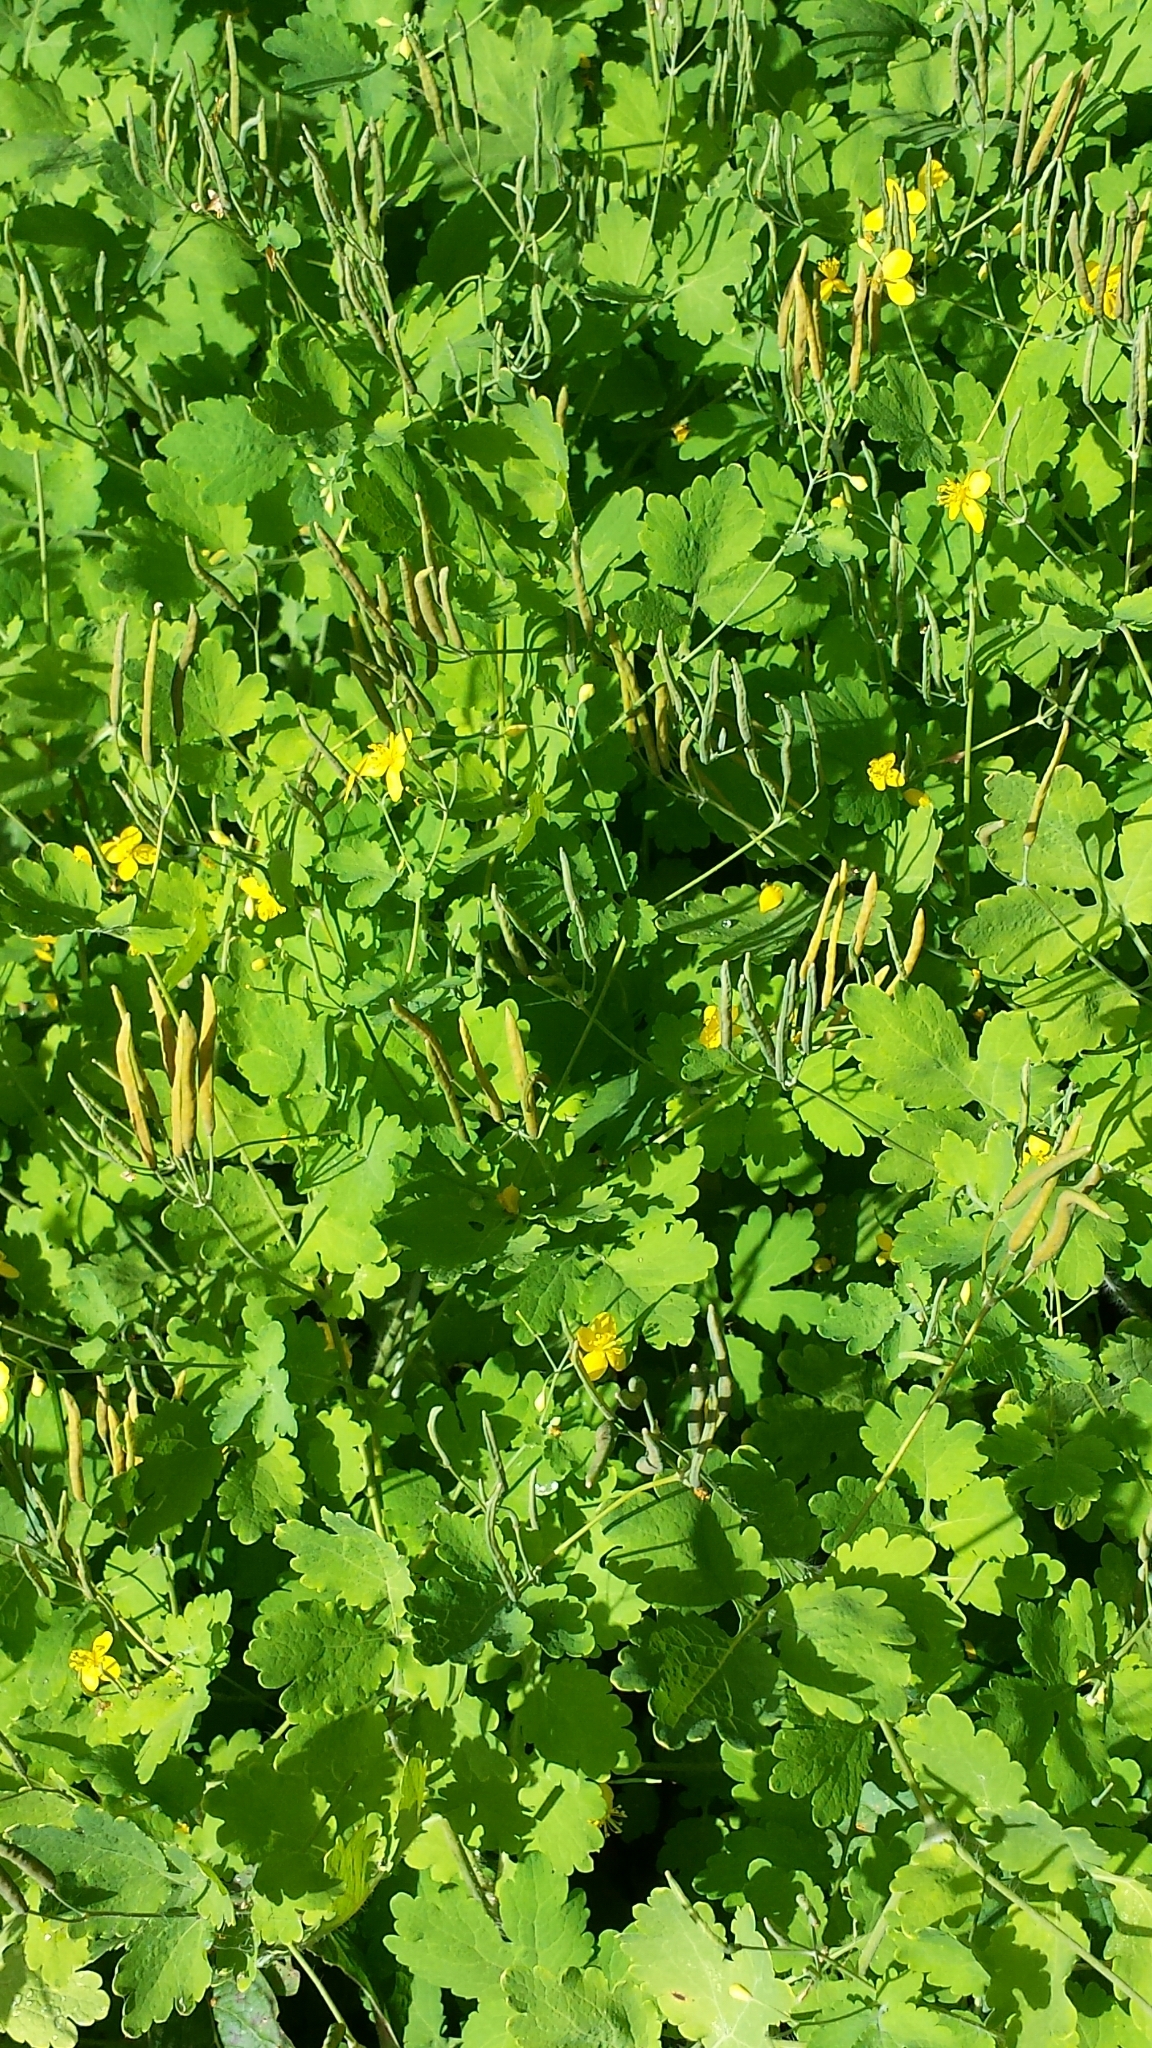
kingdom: Plantae
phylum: Tracheophyta
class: Magnoliopsida
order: Ranunculales
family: Papaveraceae
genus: Chelidonium
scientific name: Chelidonium majus
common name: Greater celandine
